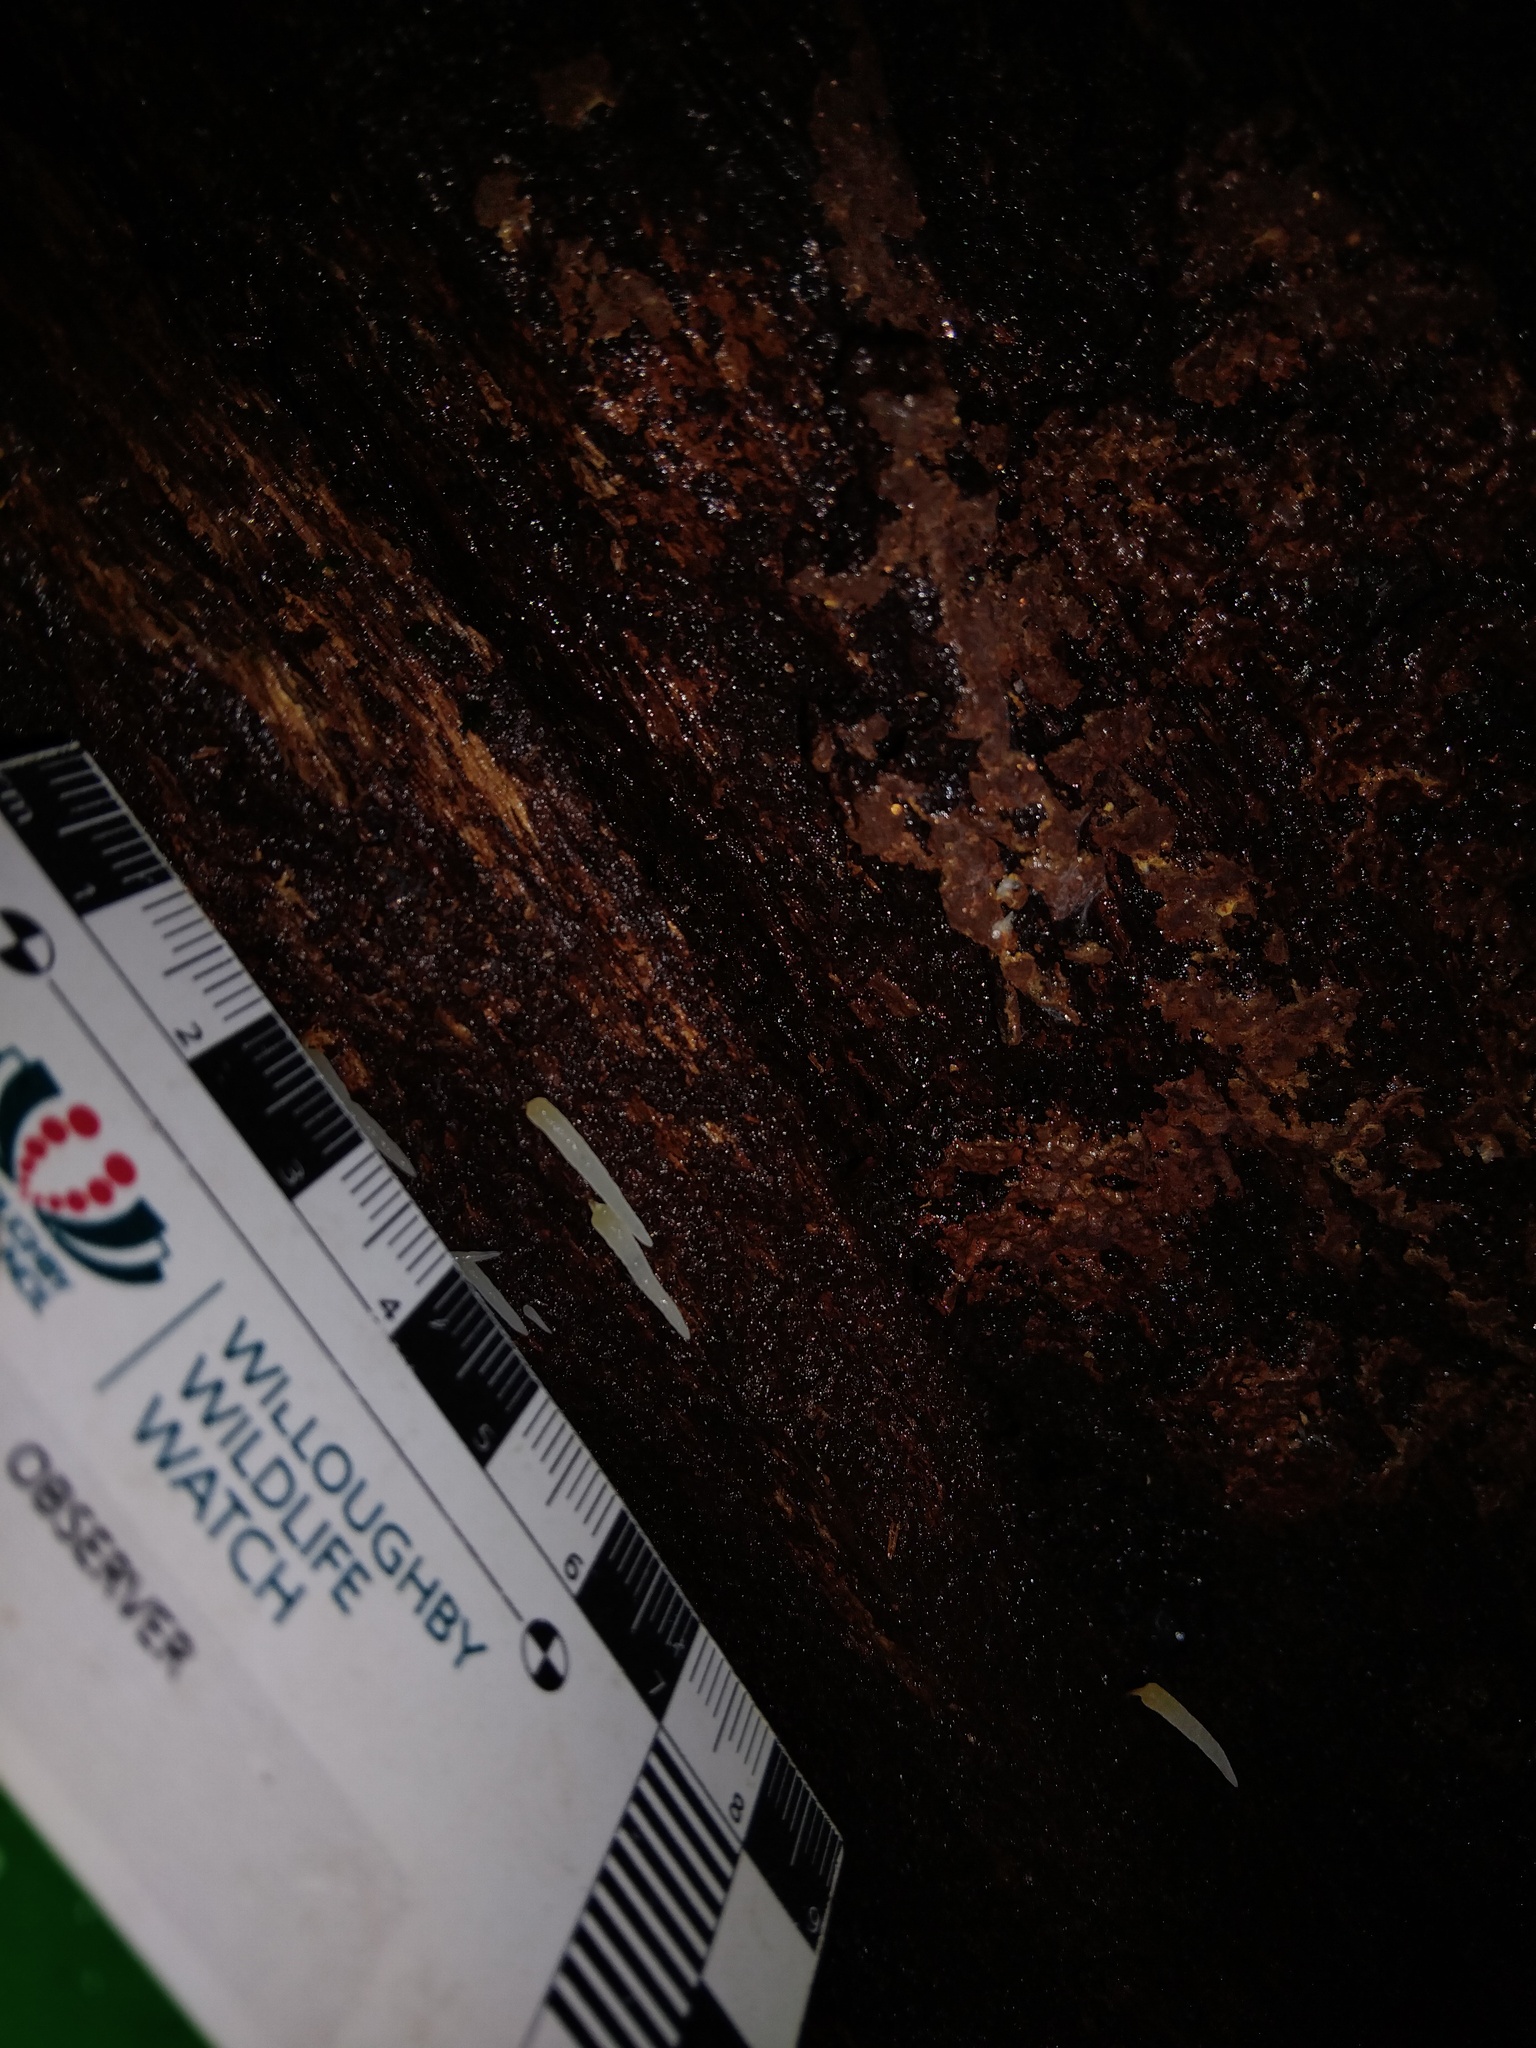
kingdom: Fungi
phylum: Basidiomycota
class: Agaricomycetes
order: Agaricales
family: Clavariaceae
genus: Mucronella
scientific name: Mucronella pendula
